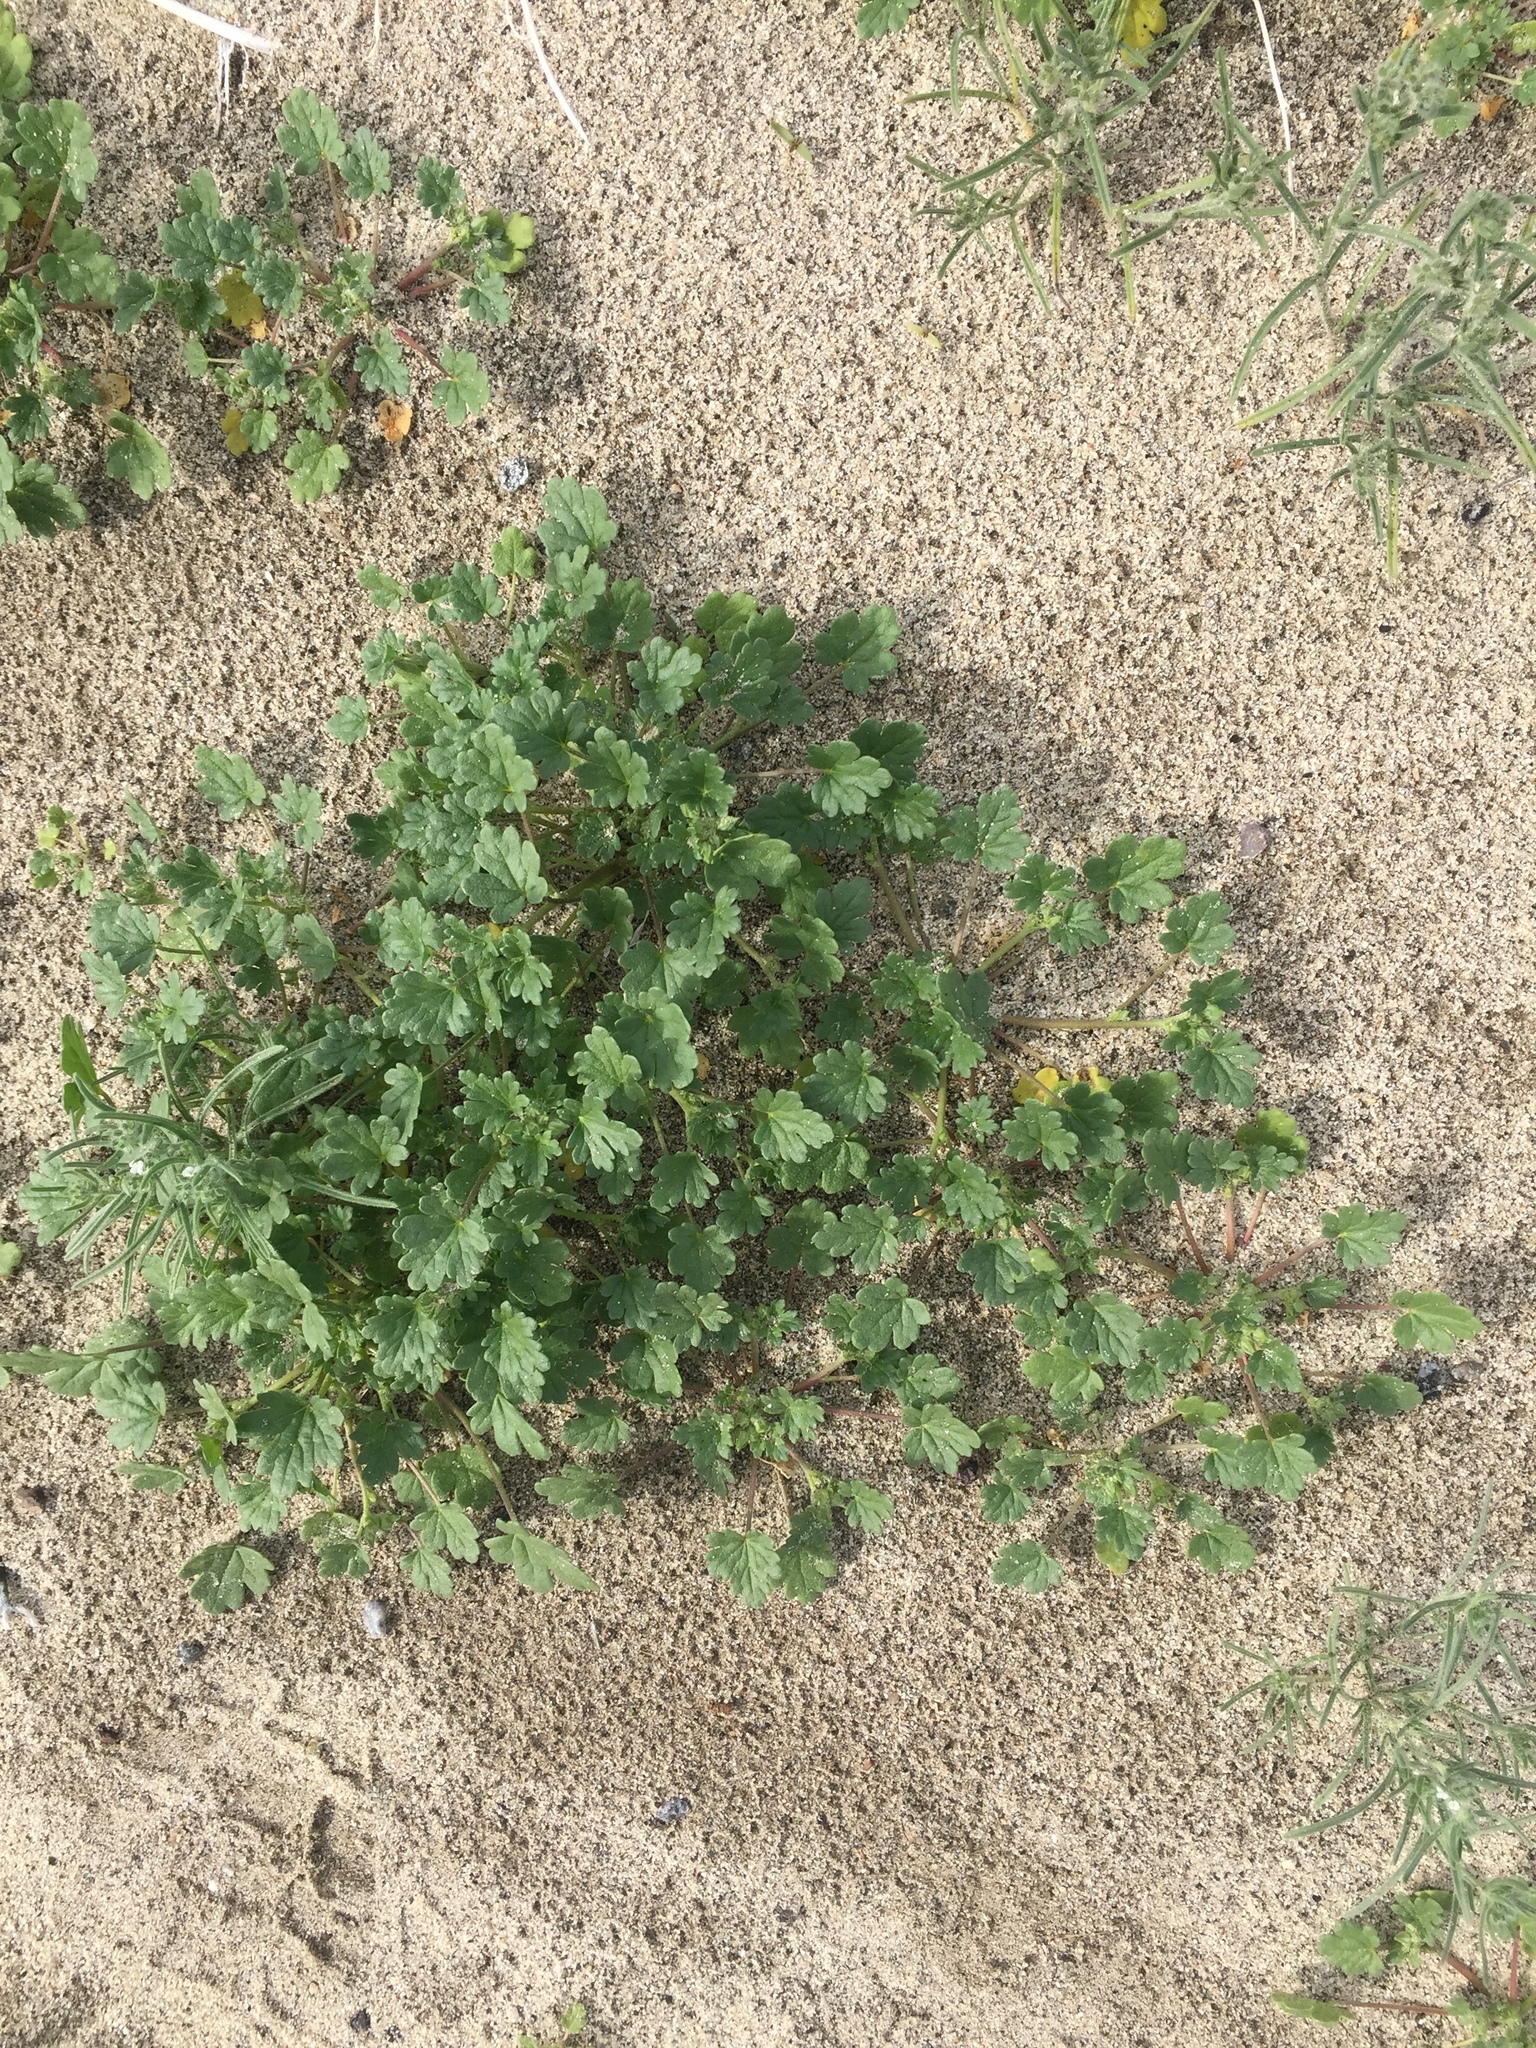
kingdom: Plantae
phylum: Tracheophyta
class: Magnoliopsida
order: Malvales
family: Malvaceae
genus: Eremalche
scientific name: Eremalche exilis
